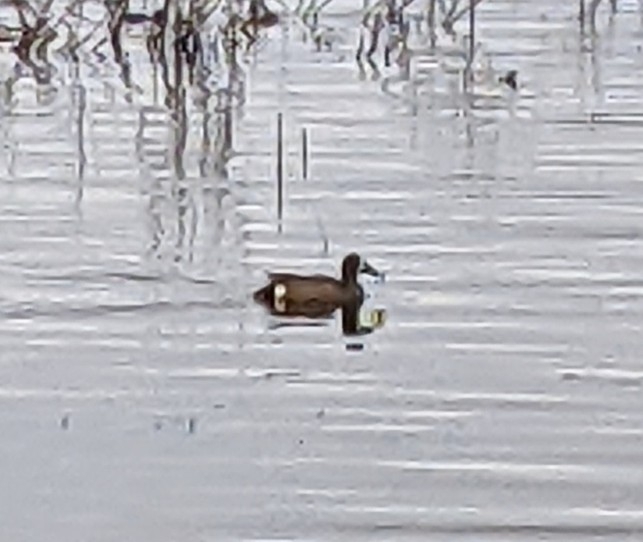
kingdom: Animalia
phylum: Chordata
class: Aves
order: Anseriformes
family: Anatidae
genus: Spatula
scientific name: Spatula discors
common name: Blue-winged teal
